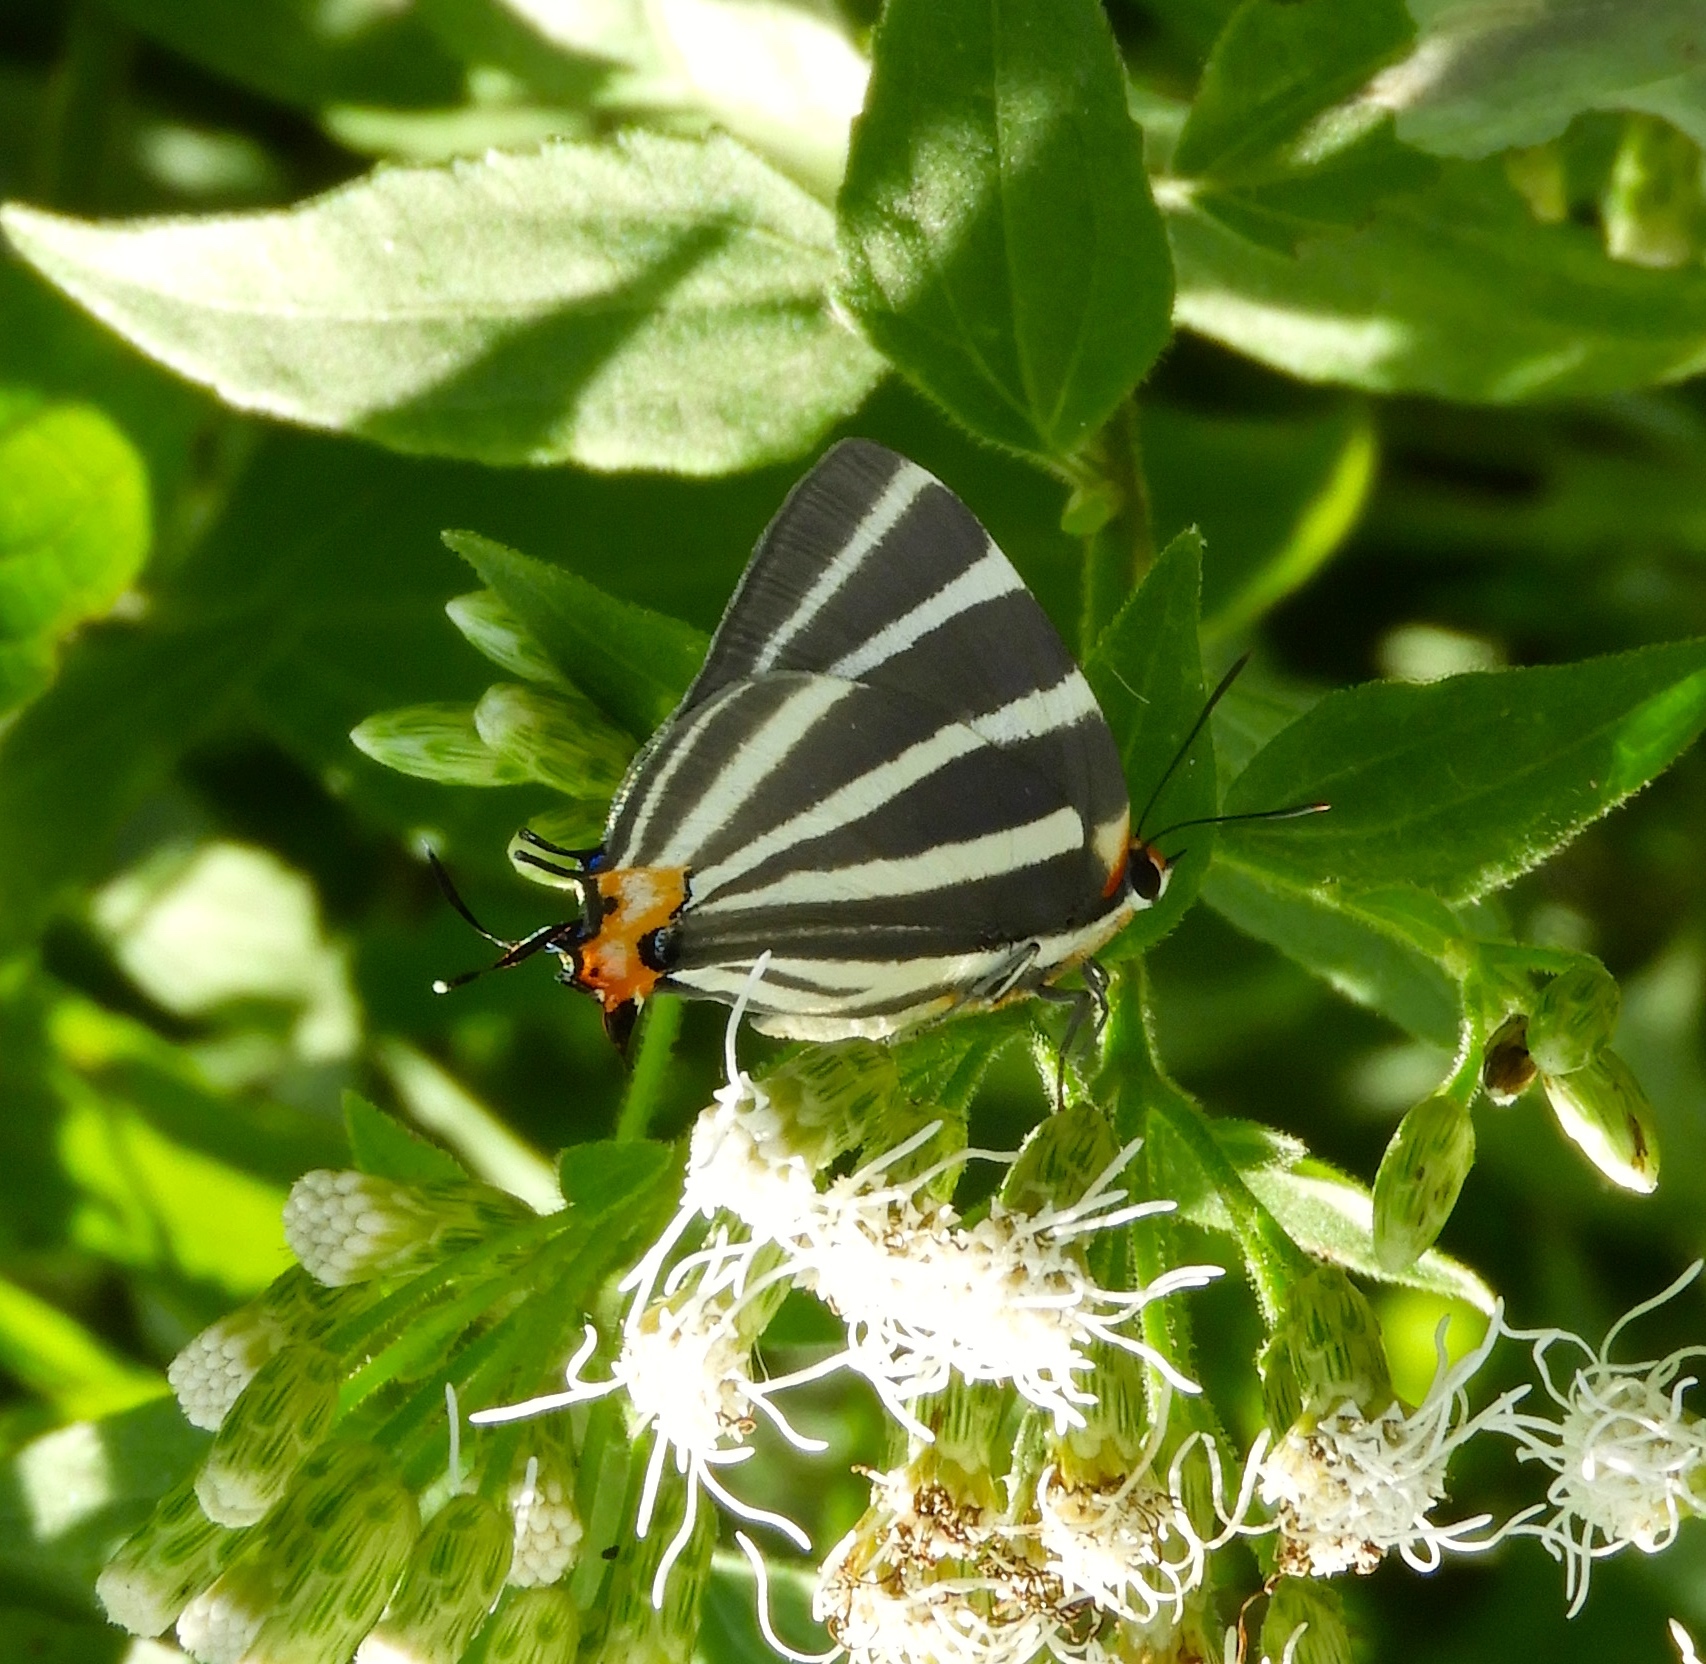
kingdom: Animalia
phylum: Arthropoda
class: Insecta
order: Lepidoptera
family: Lycaenidae
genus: Thecla
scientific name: Thecla bathildis
